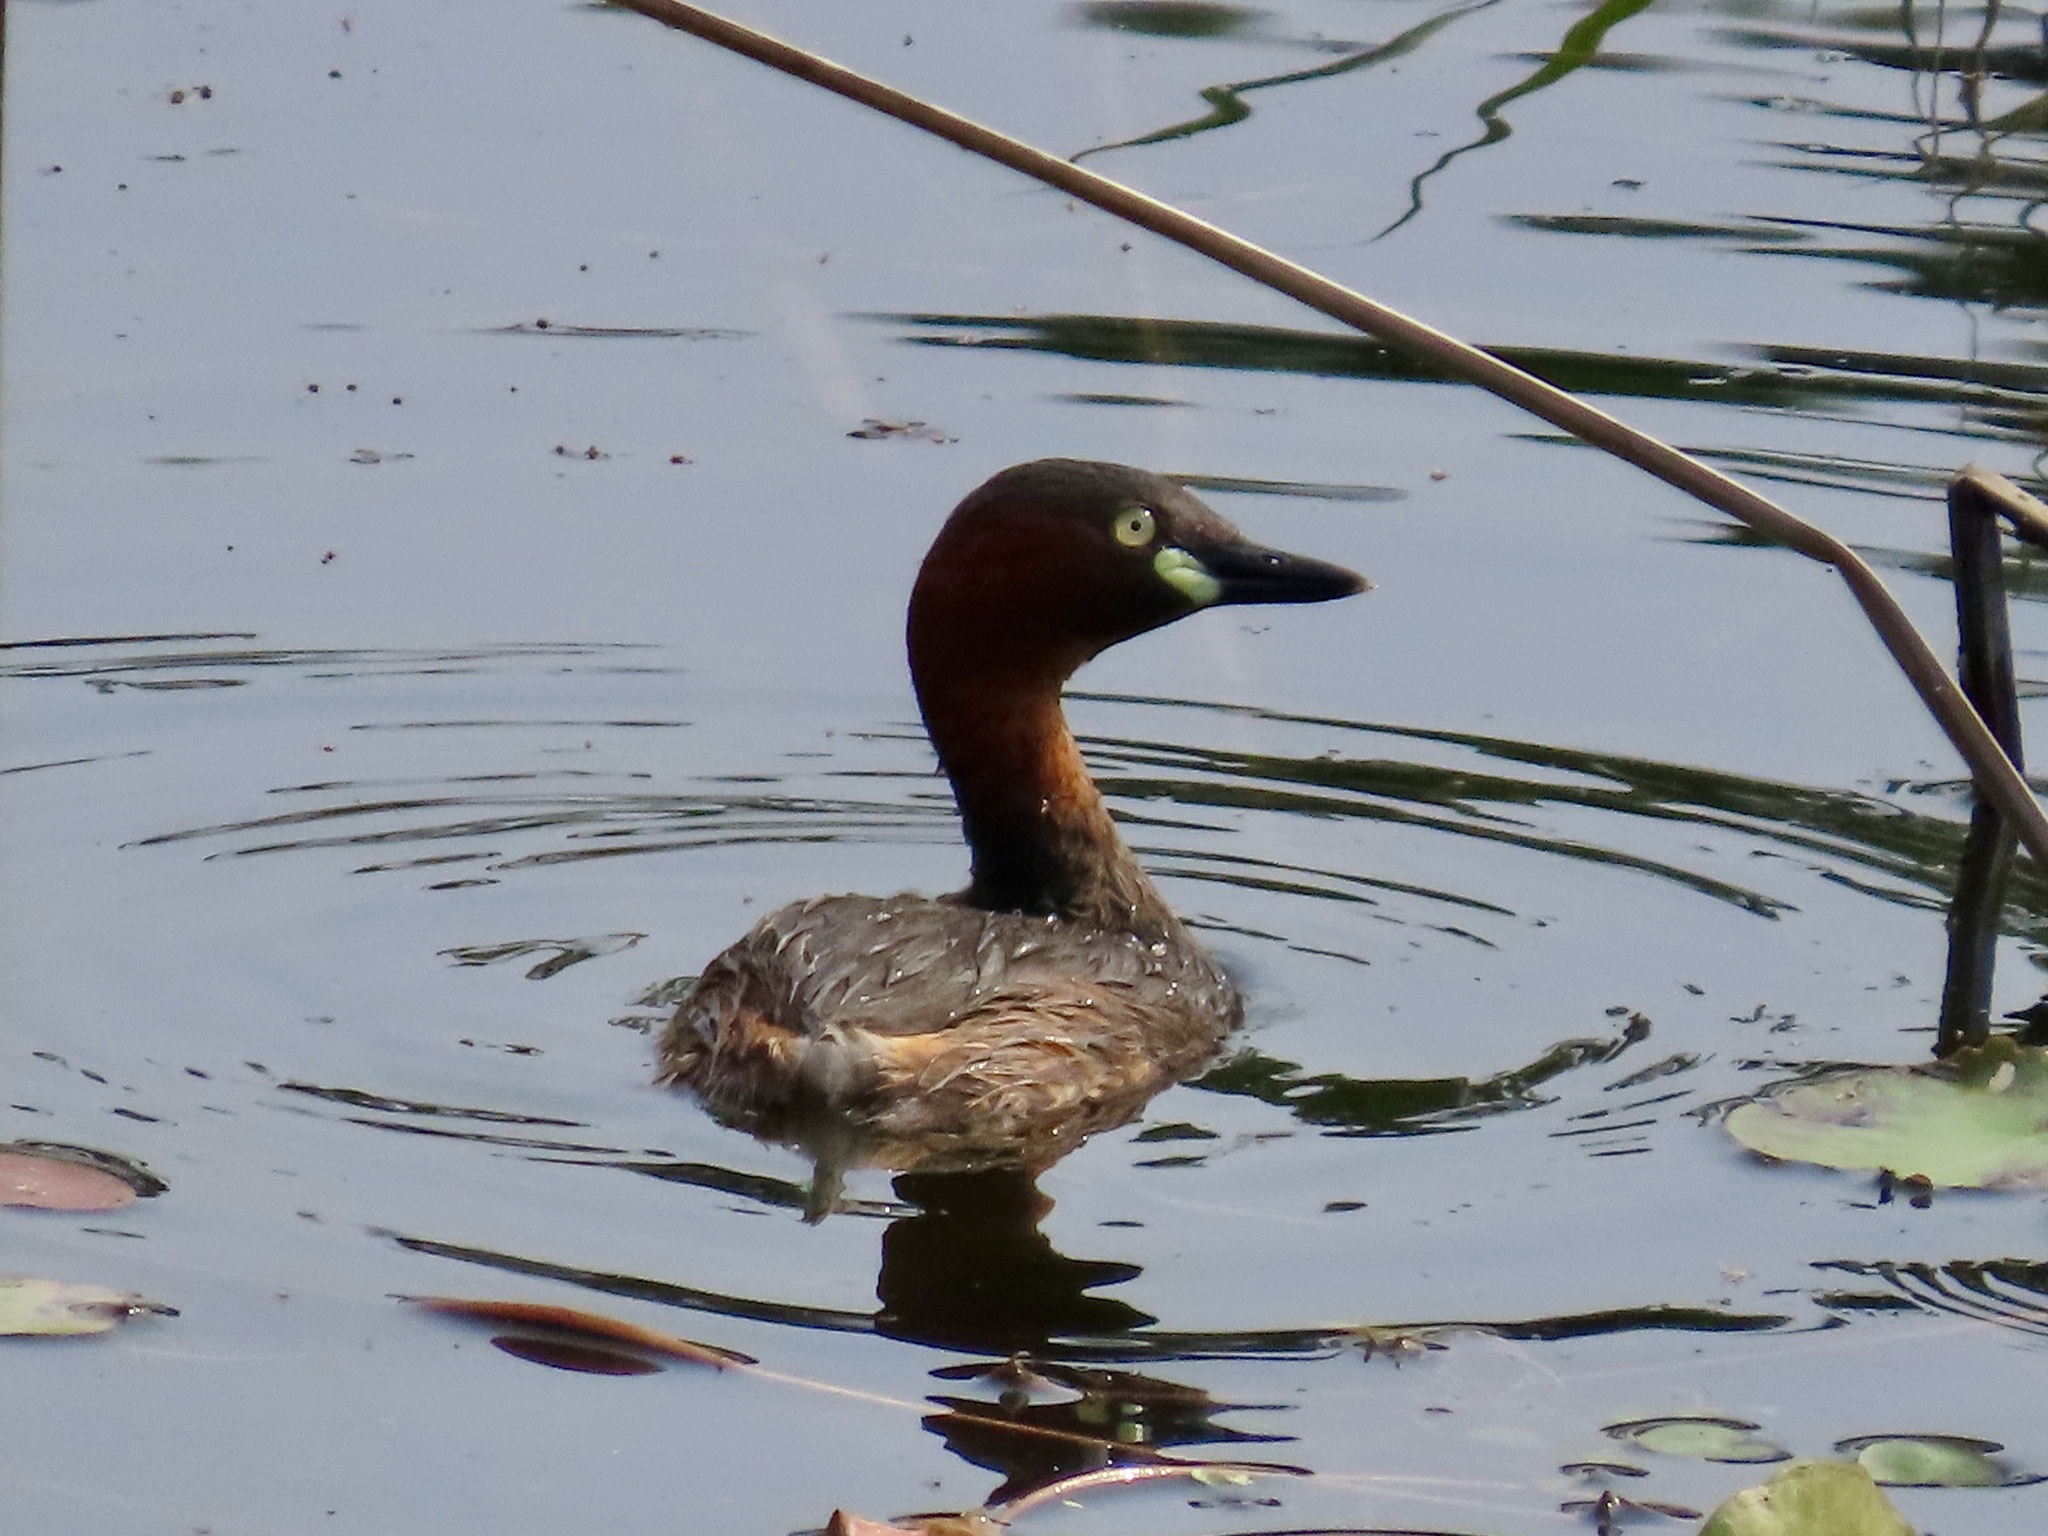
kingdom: Animalia
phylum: Chordata
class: Aves
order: Podicipediformes
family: Podicipedidae
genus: Tachybaptus
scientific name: Tachybaptus ruficollis
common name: Little grebe
